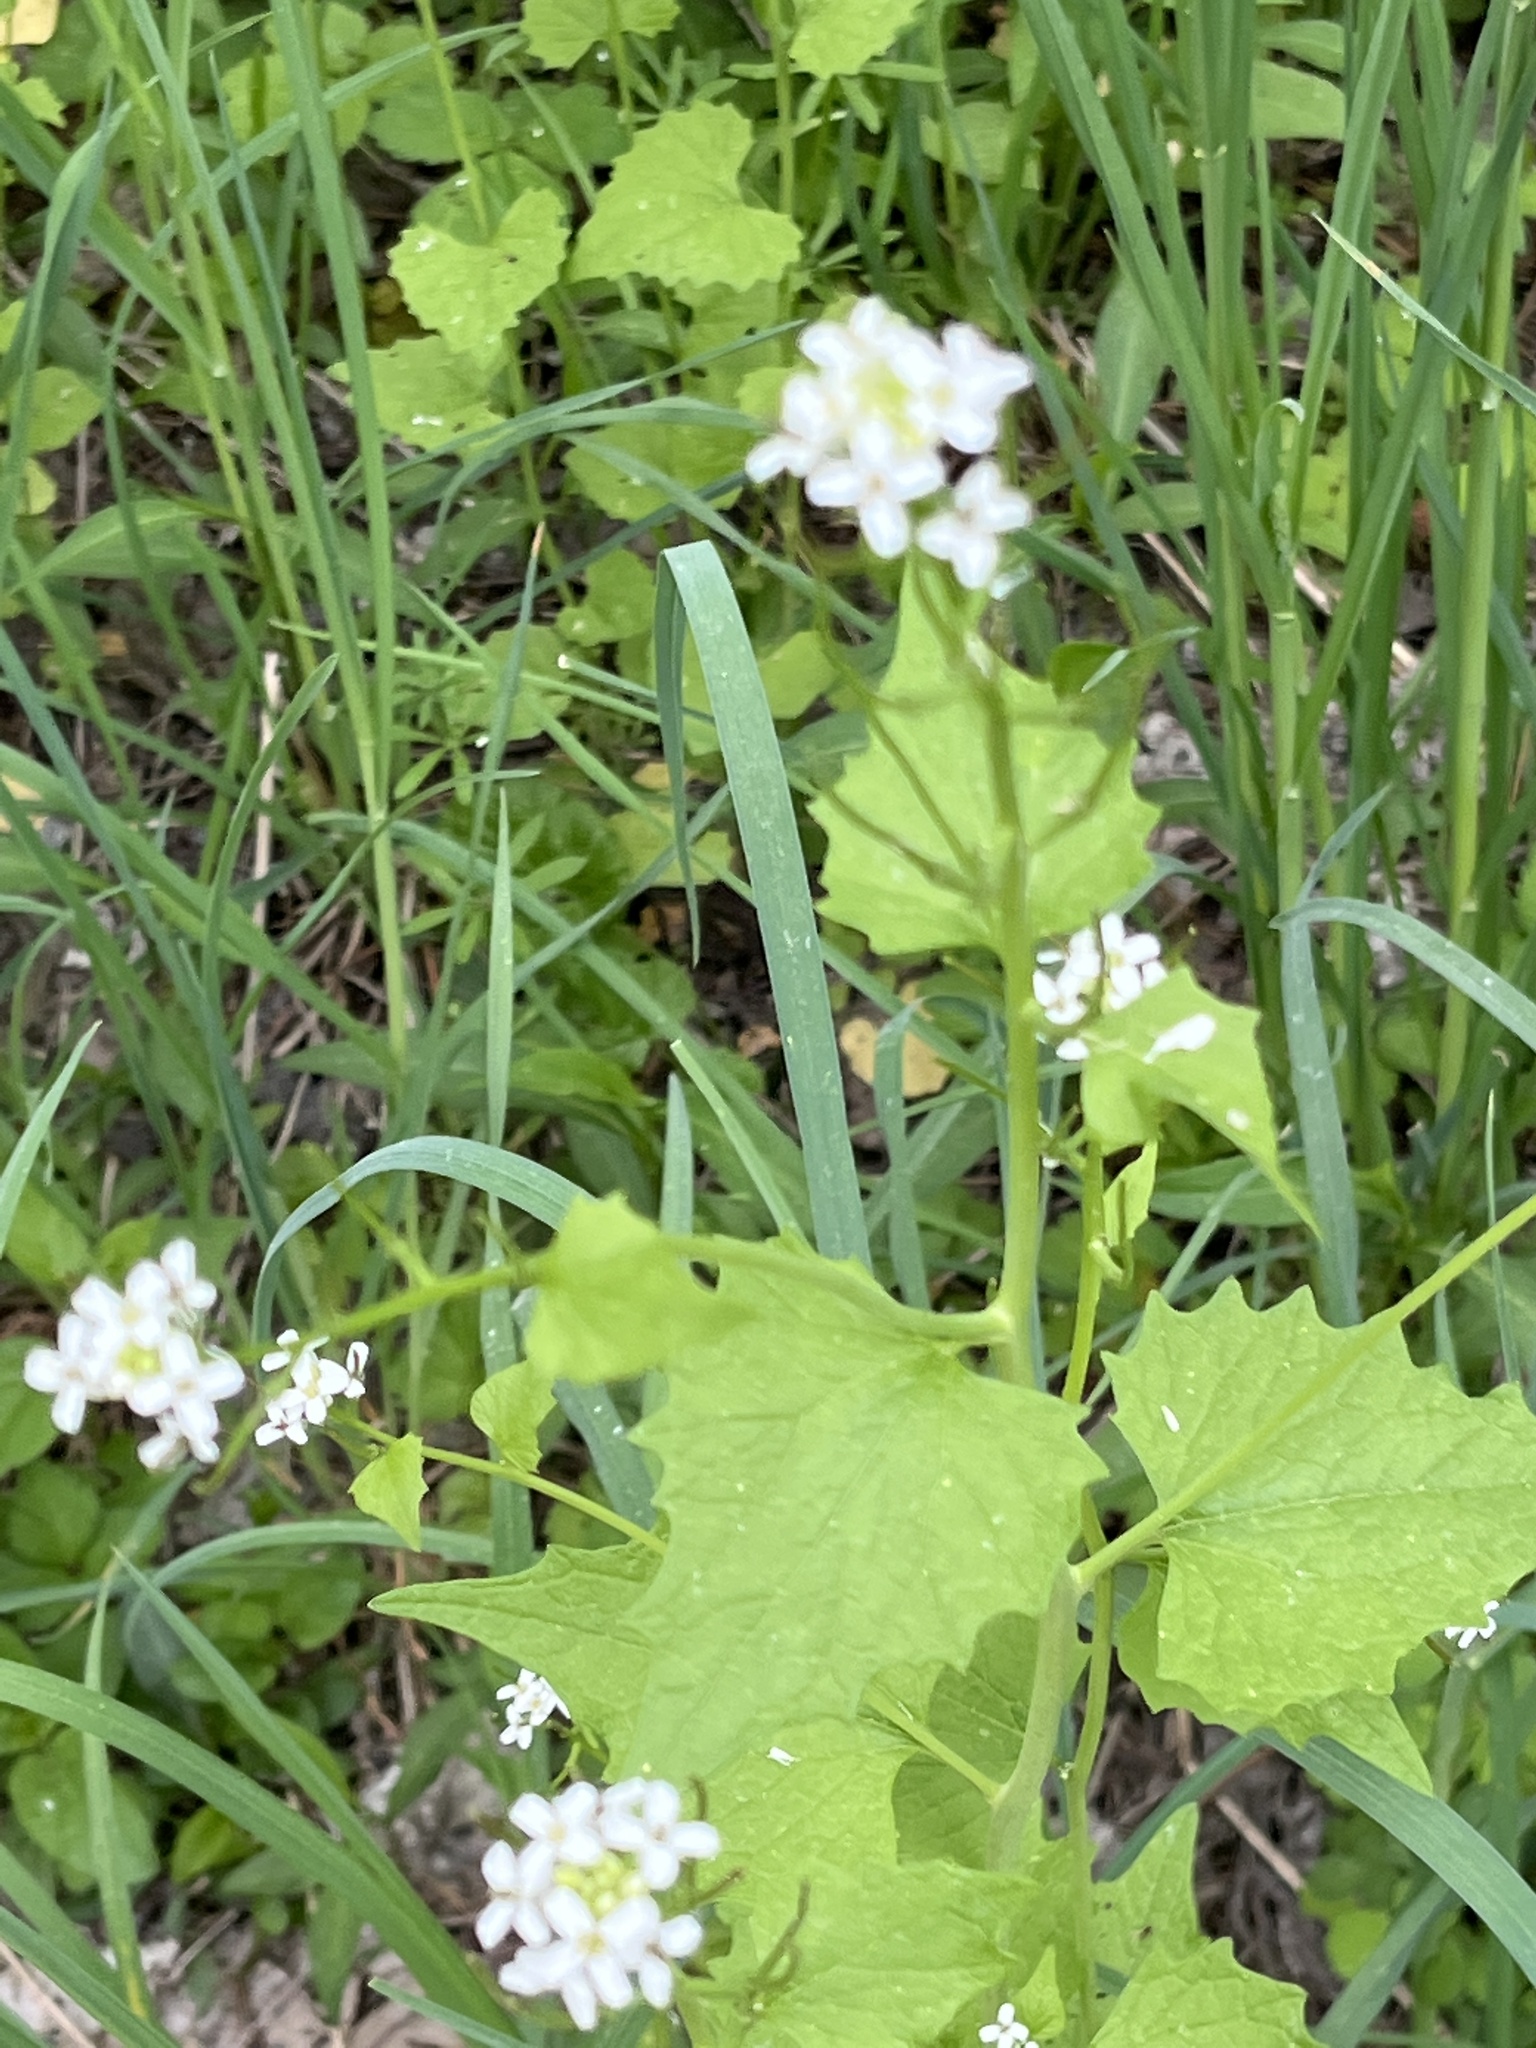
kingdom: Plantae
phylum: Tracheophyta
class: Magnoliopsida
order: Brassicales
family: Brassicaceae
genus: Alliaria
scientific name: Alliaria petiolata
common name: Garlic mustard
